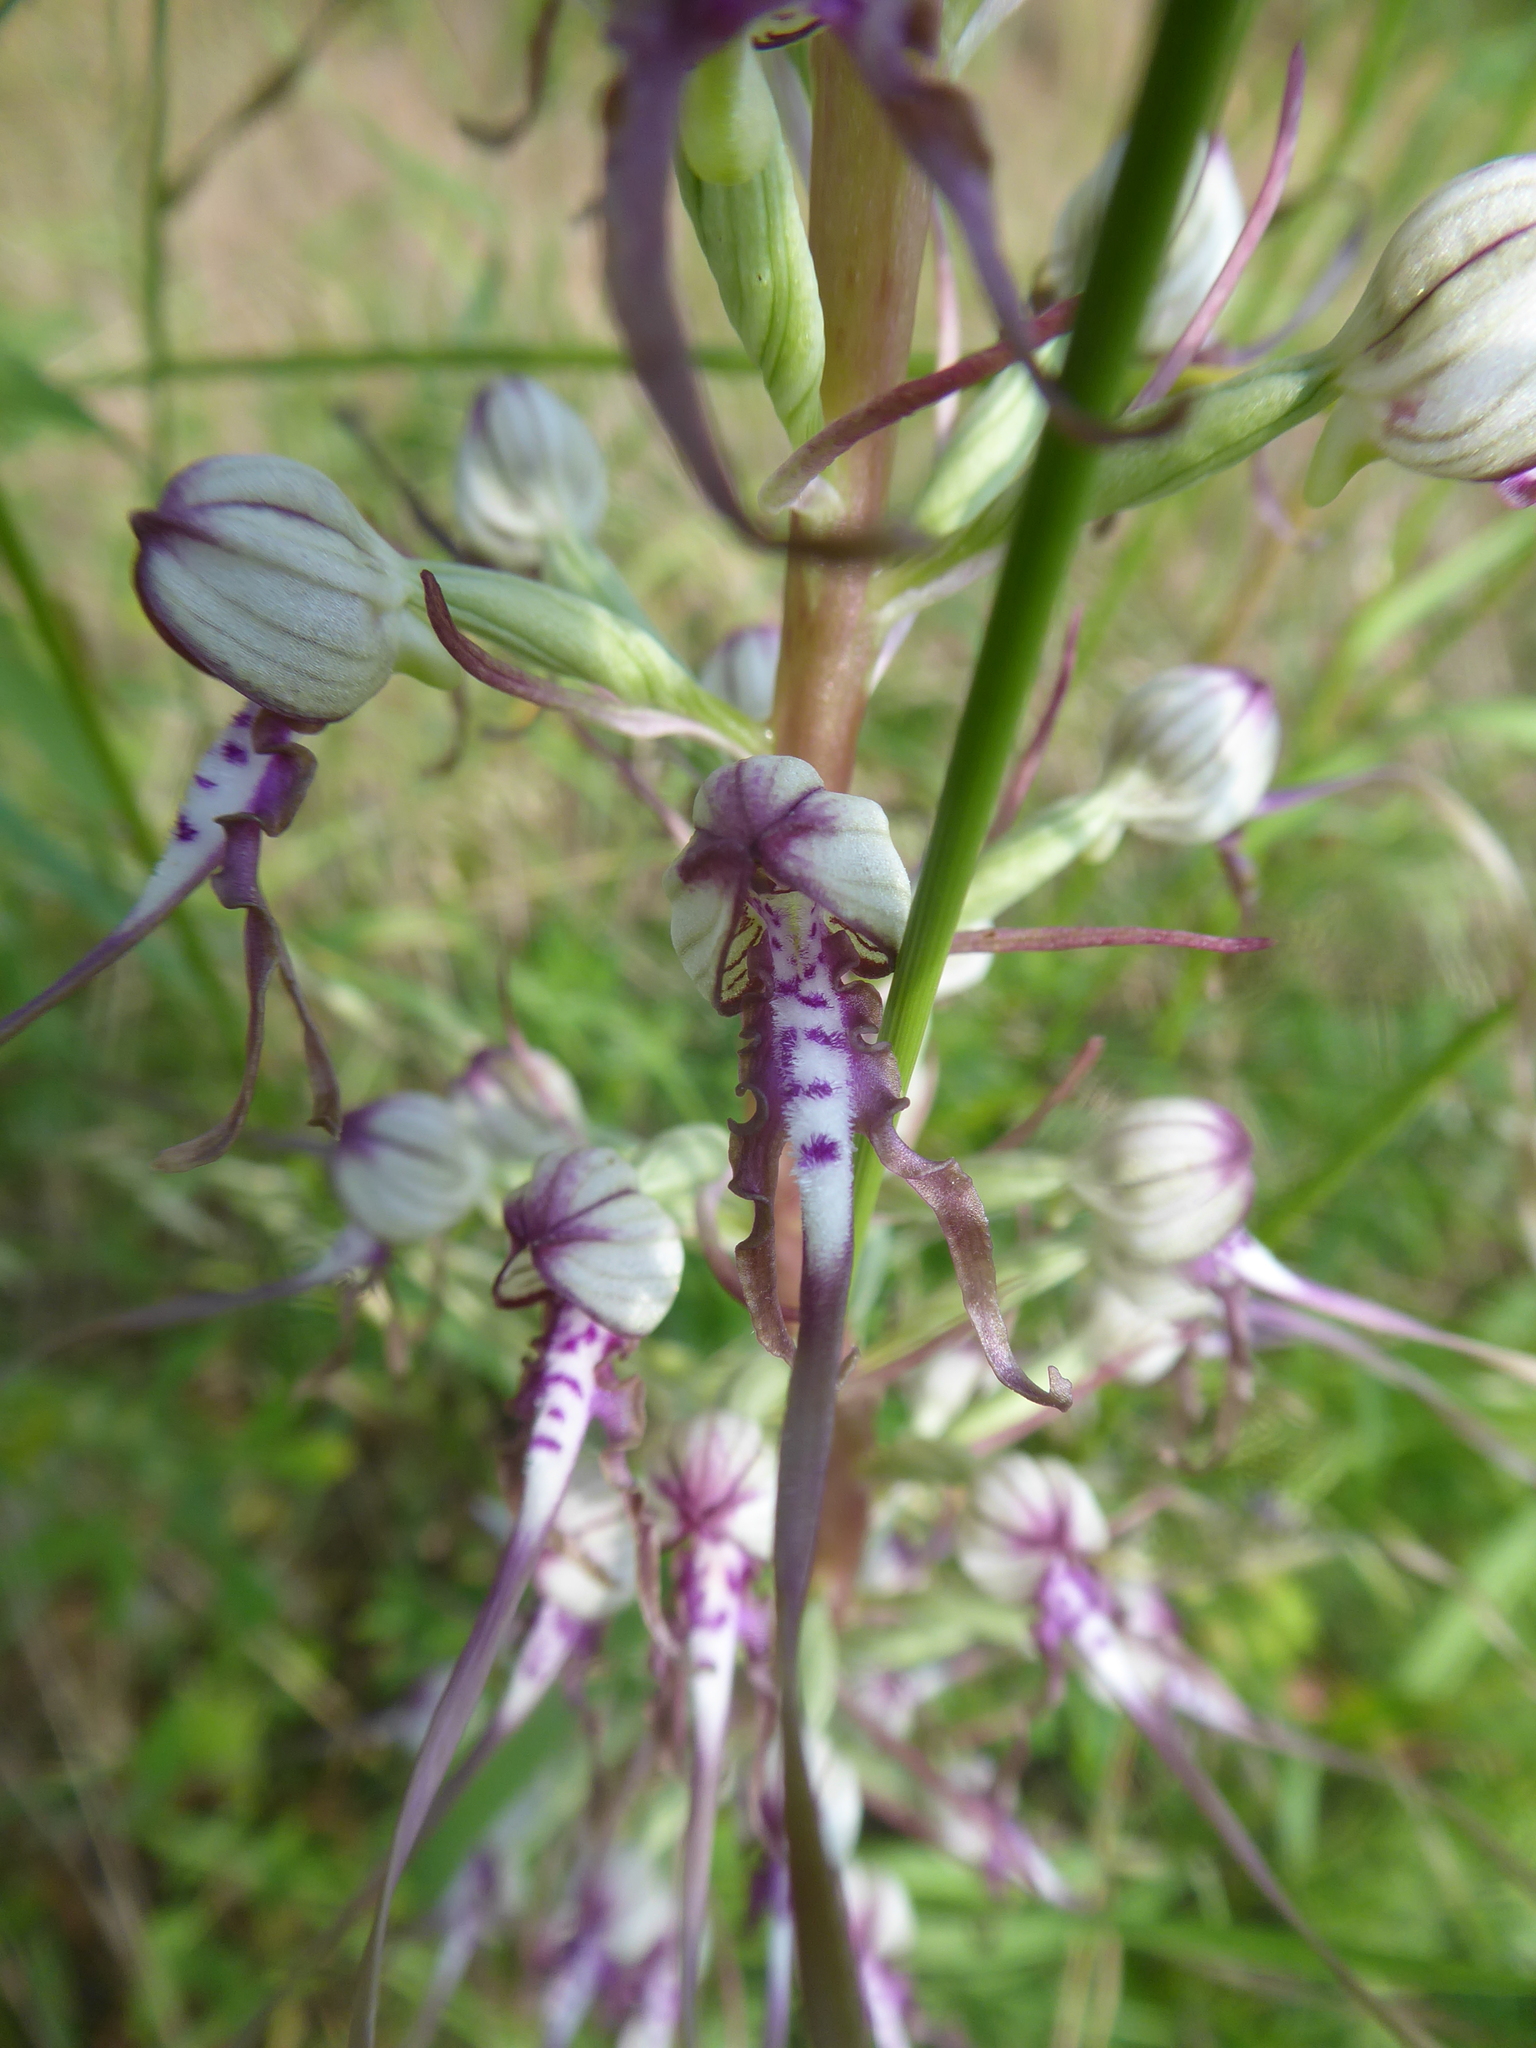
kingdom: Plantae
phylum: Tracheophyta
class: Liliopsida
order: Asparagales
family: Orchidaceae
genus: Himantoglossum
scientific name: Himantoglossum adriaticum
